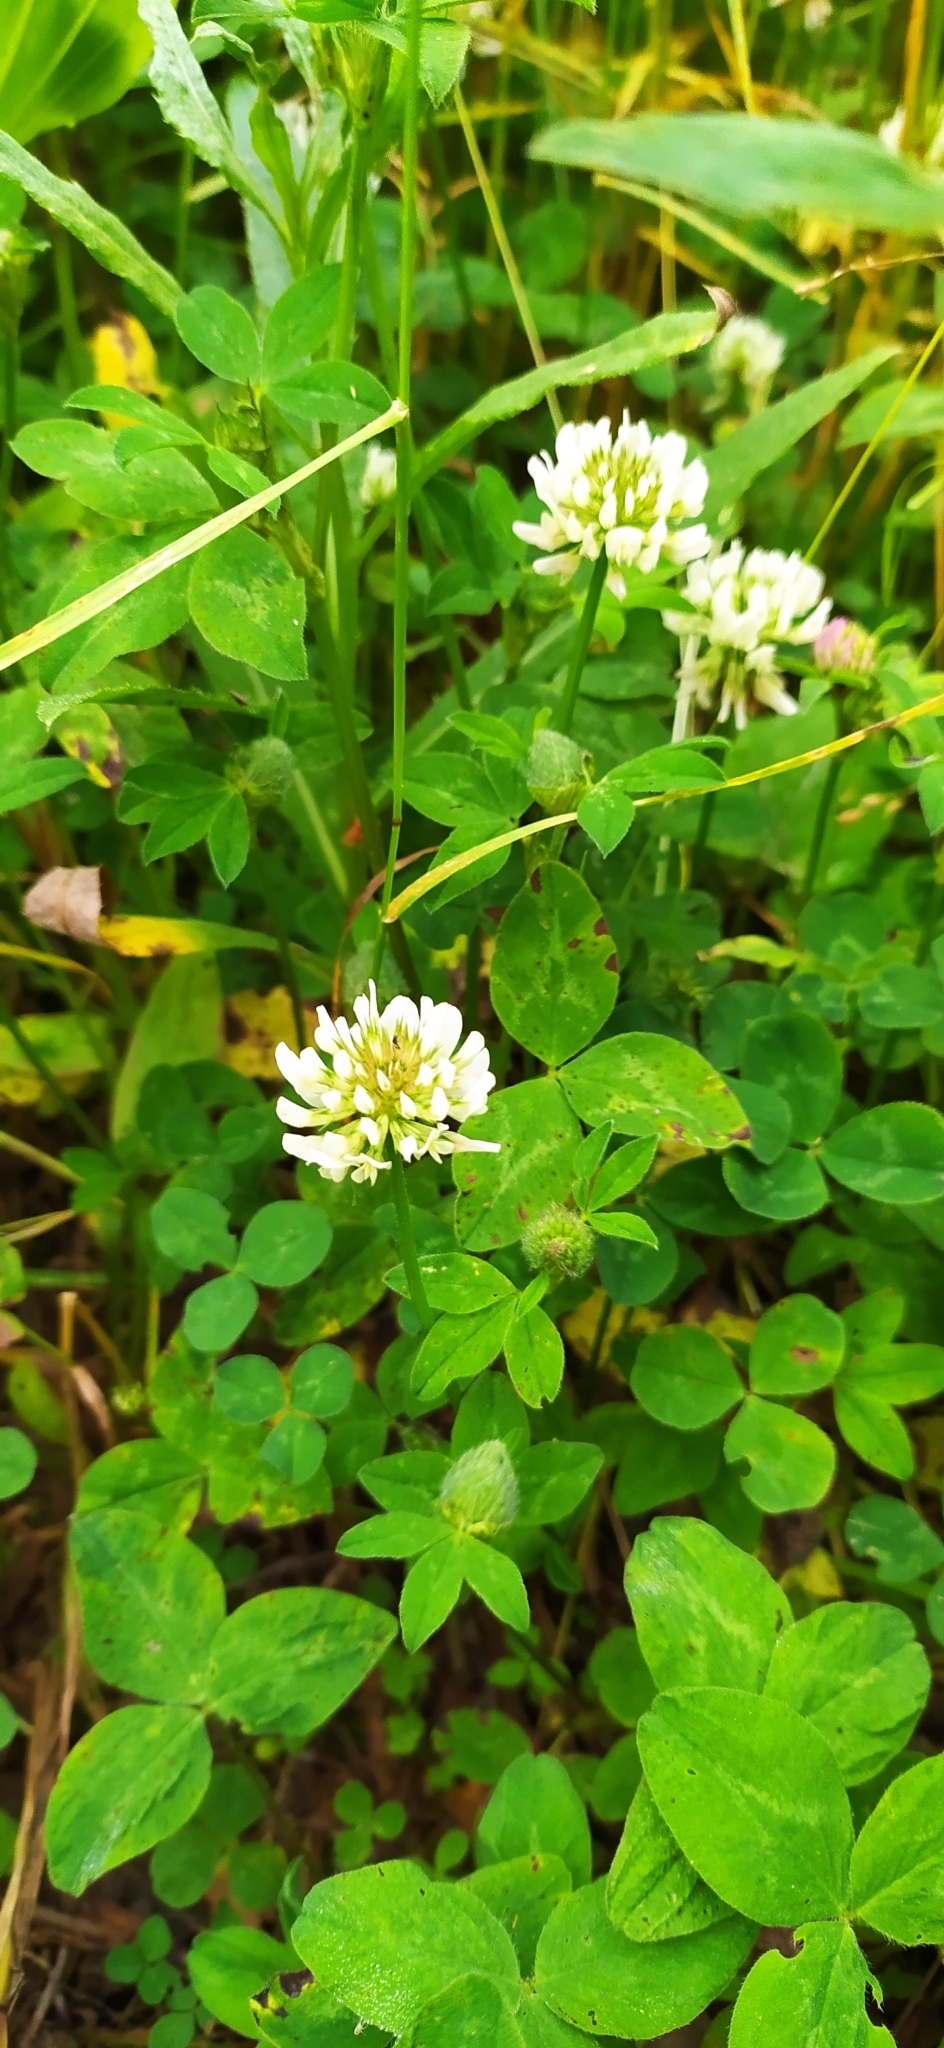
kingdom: Plantae
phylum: Tracheophyta
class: Magnoliopsida
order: Fabales
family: Fabaceae
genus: Trifolium
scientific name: Trifolium repens
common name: White clover
